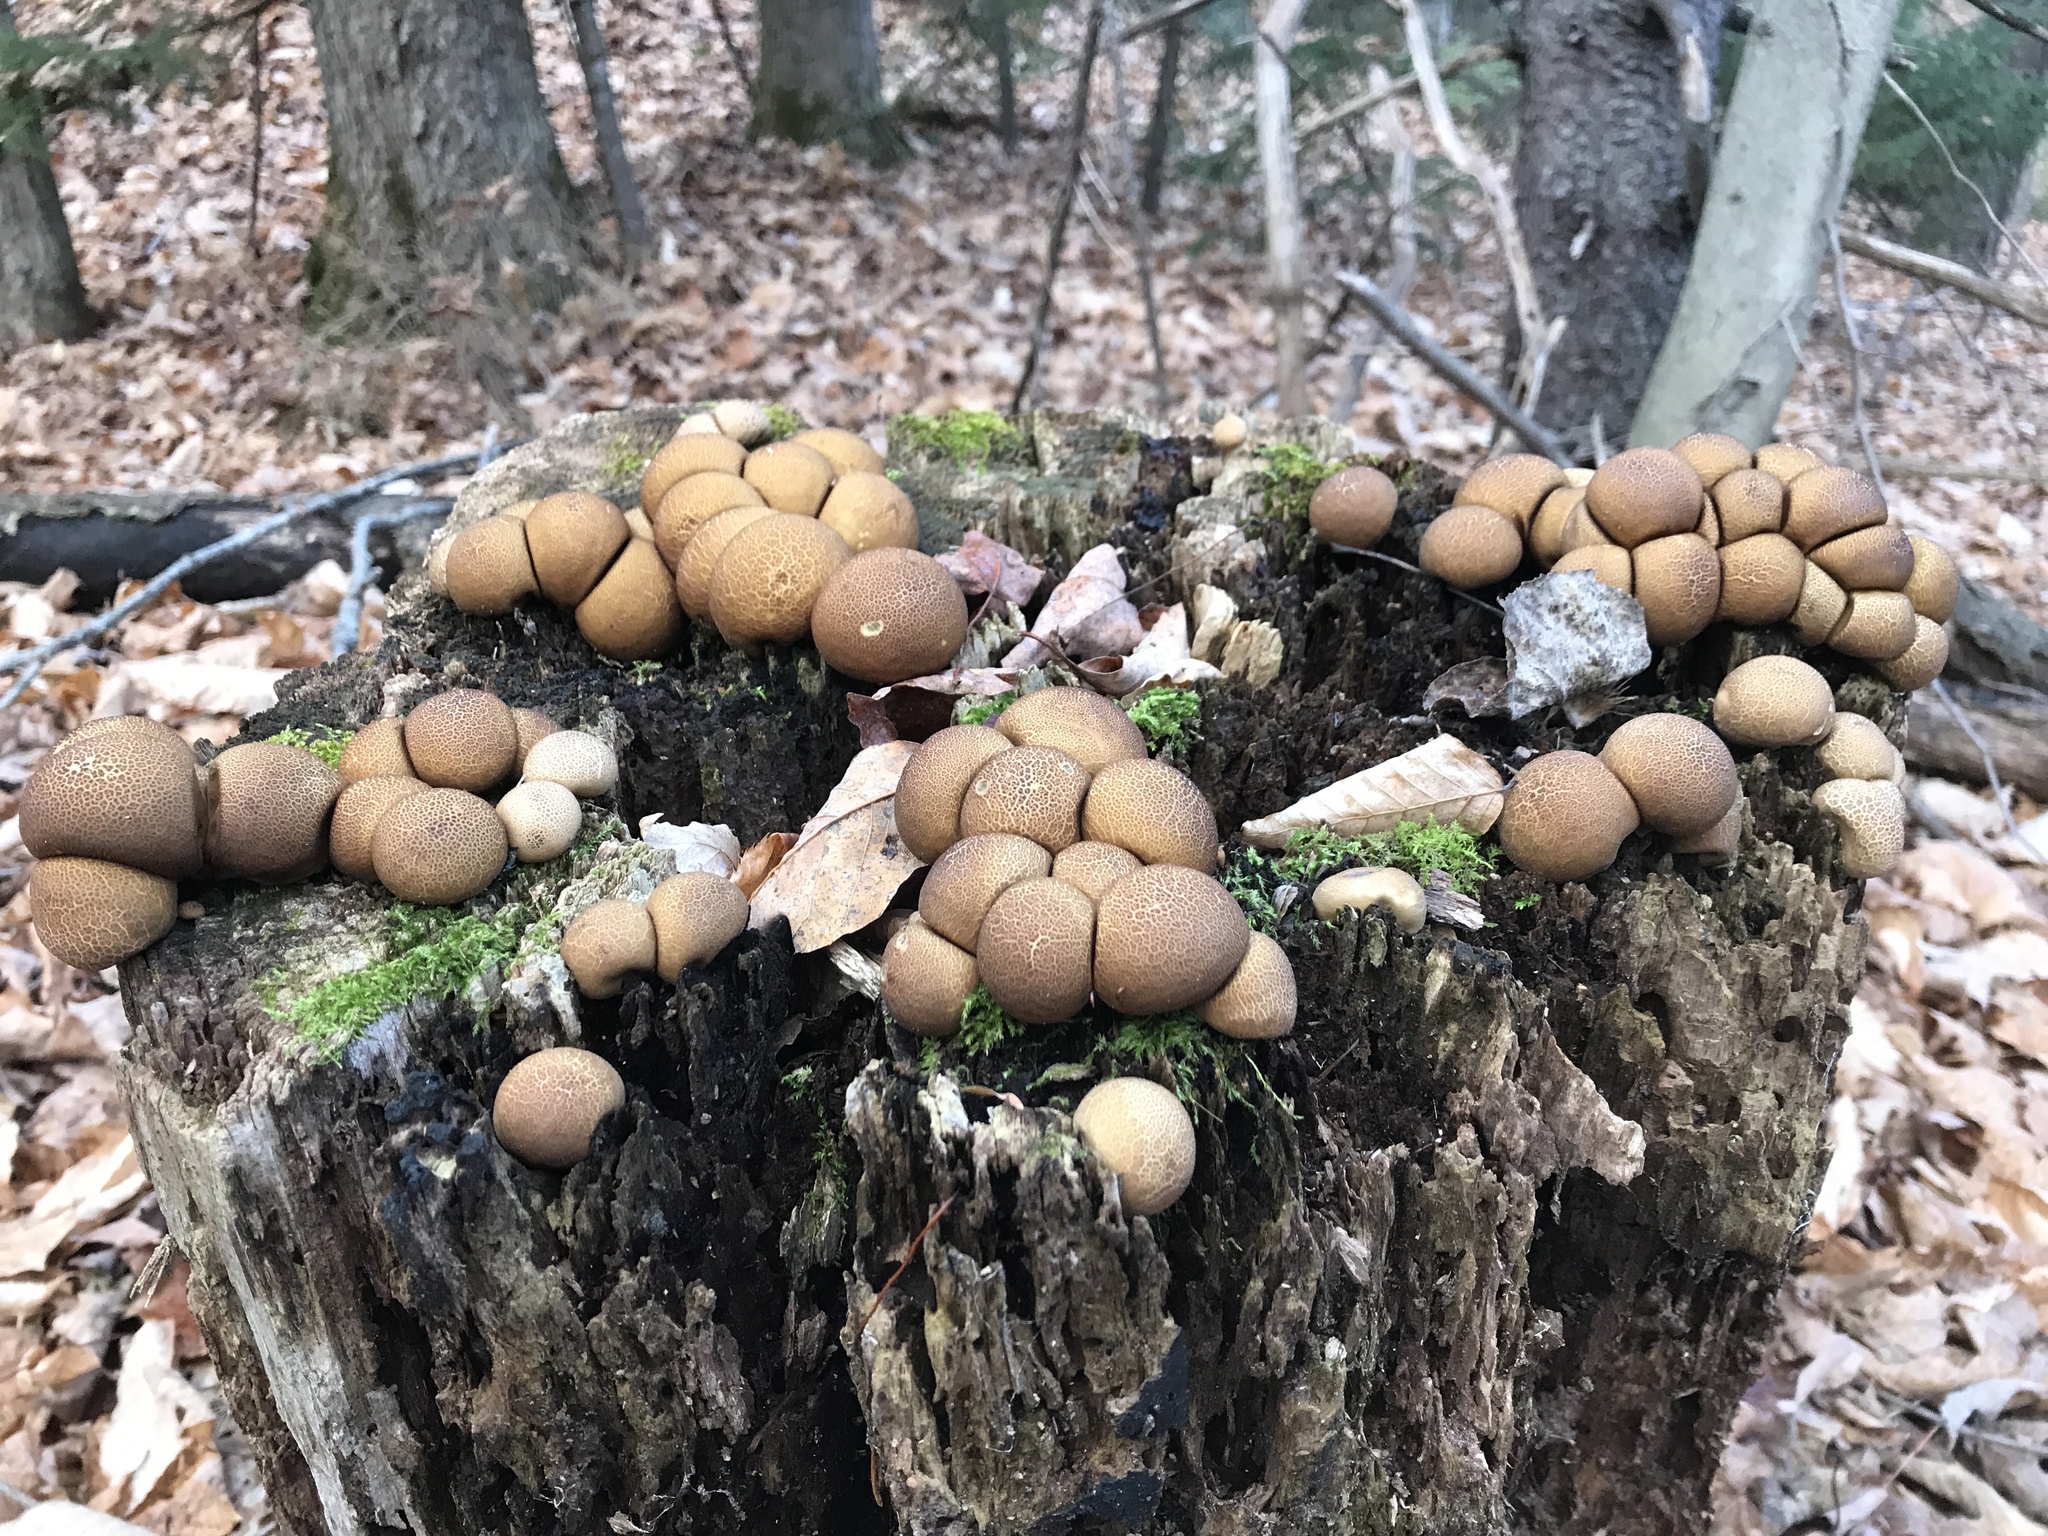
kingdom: Fungi
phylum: Basidiomycota
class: Agaricomycetes
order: Agaricales
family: Lycoperdaceae
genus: Apioperdon
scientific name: Apioperdon pyriforme
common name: Pear-shaped puffball
